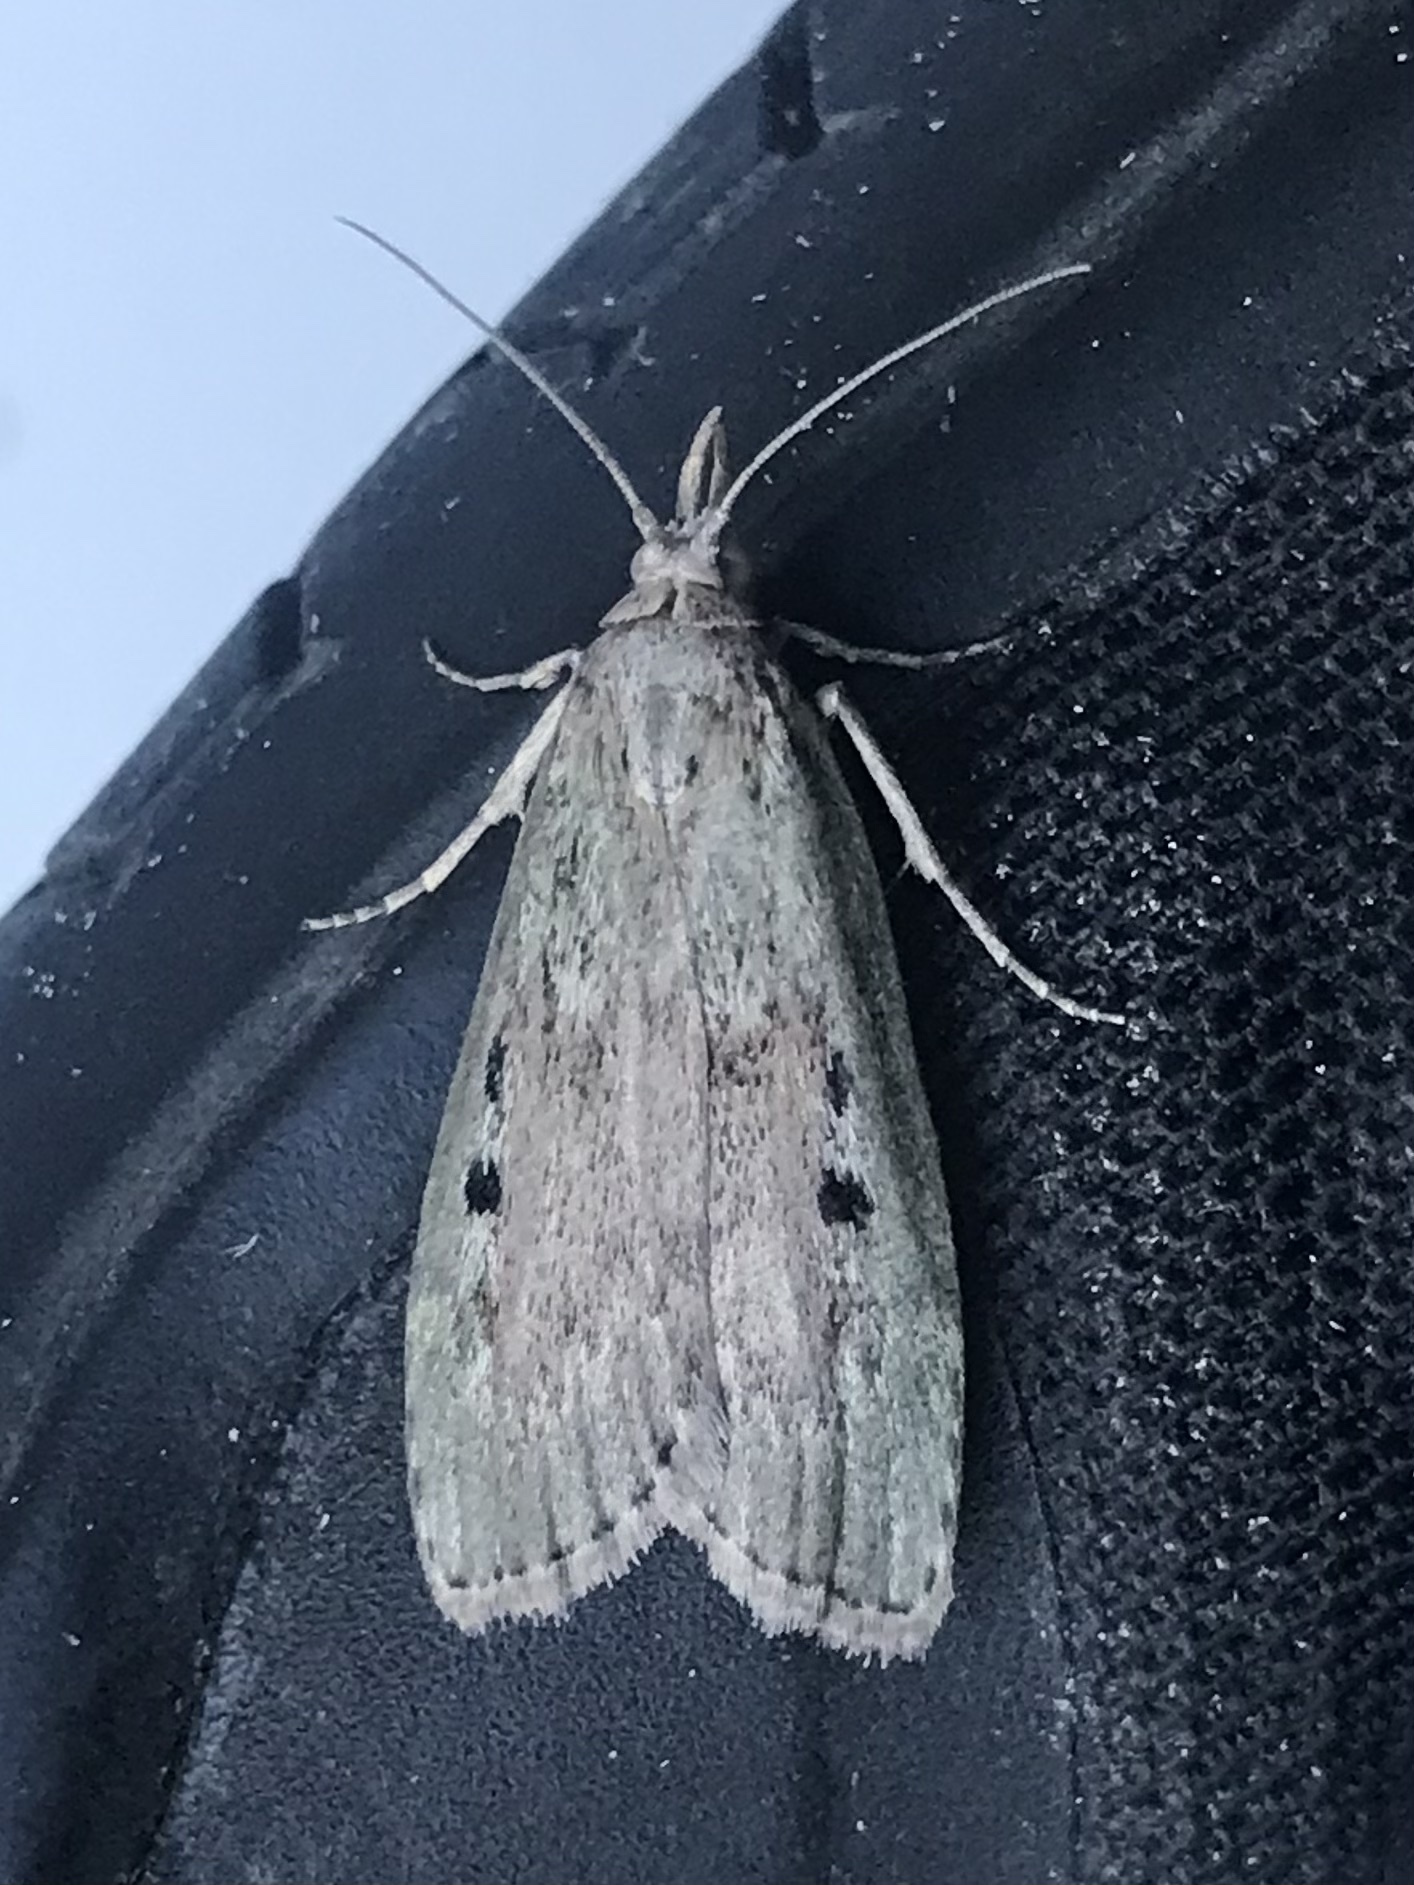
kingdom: Animalia
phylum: Arthropoda
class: Insecta
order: Lepidoptera
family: Pyralidae
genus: Aphomia
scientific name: Aphomia sociella
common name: Bee moth
